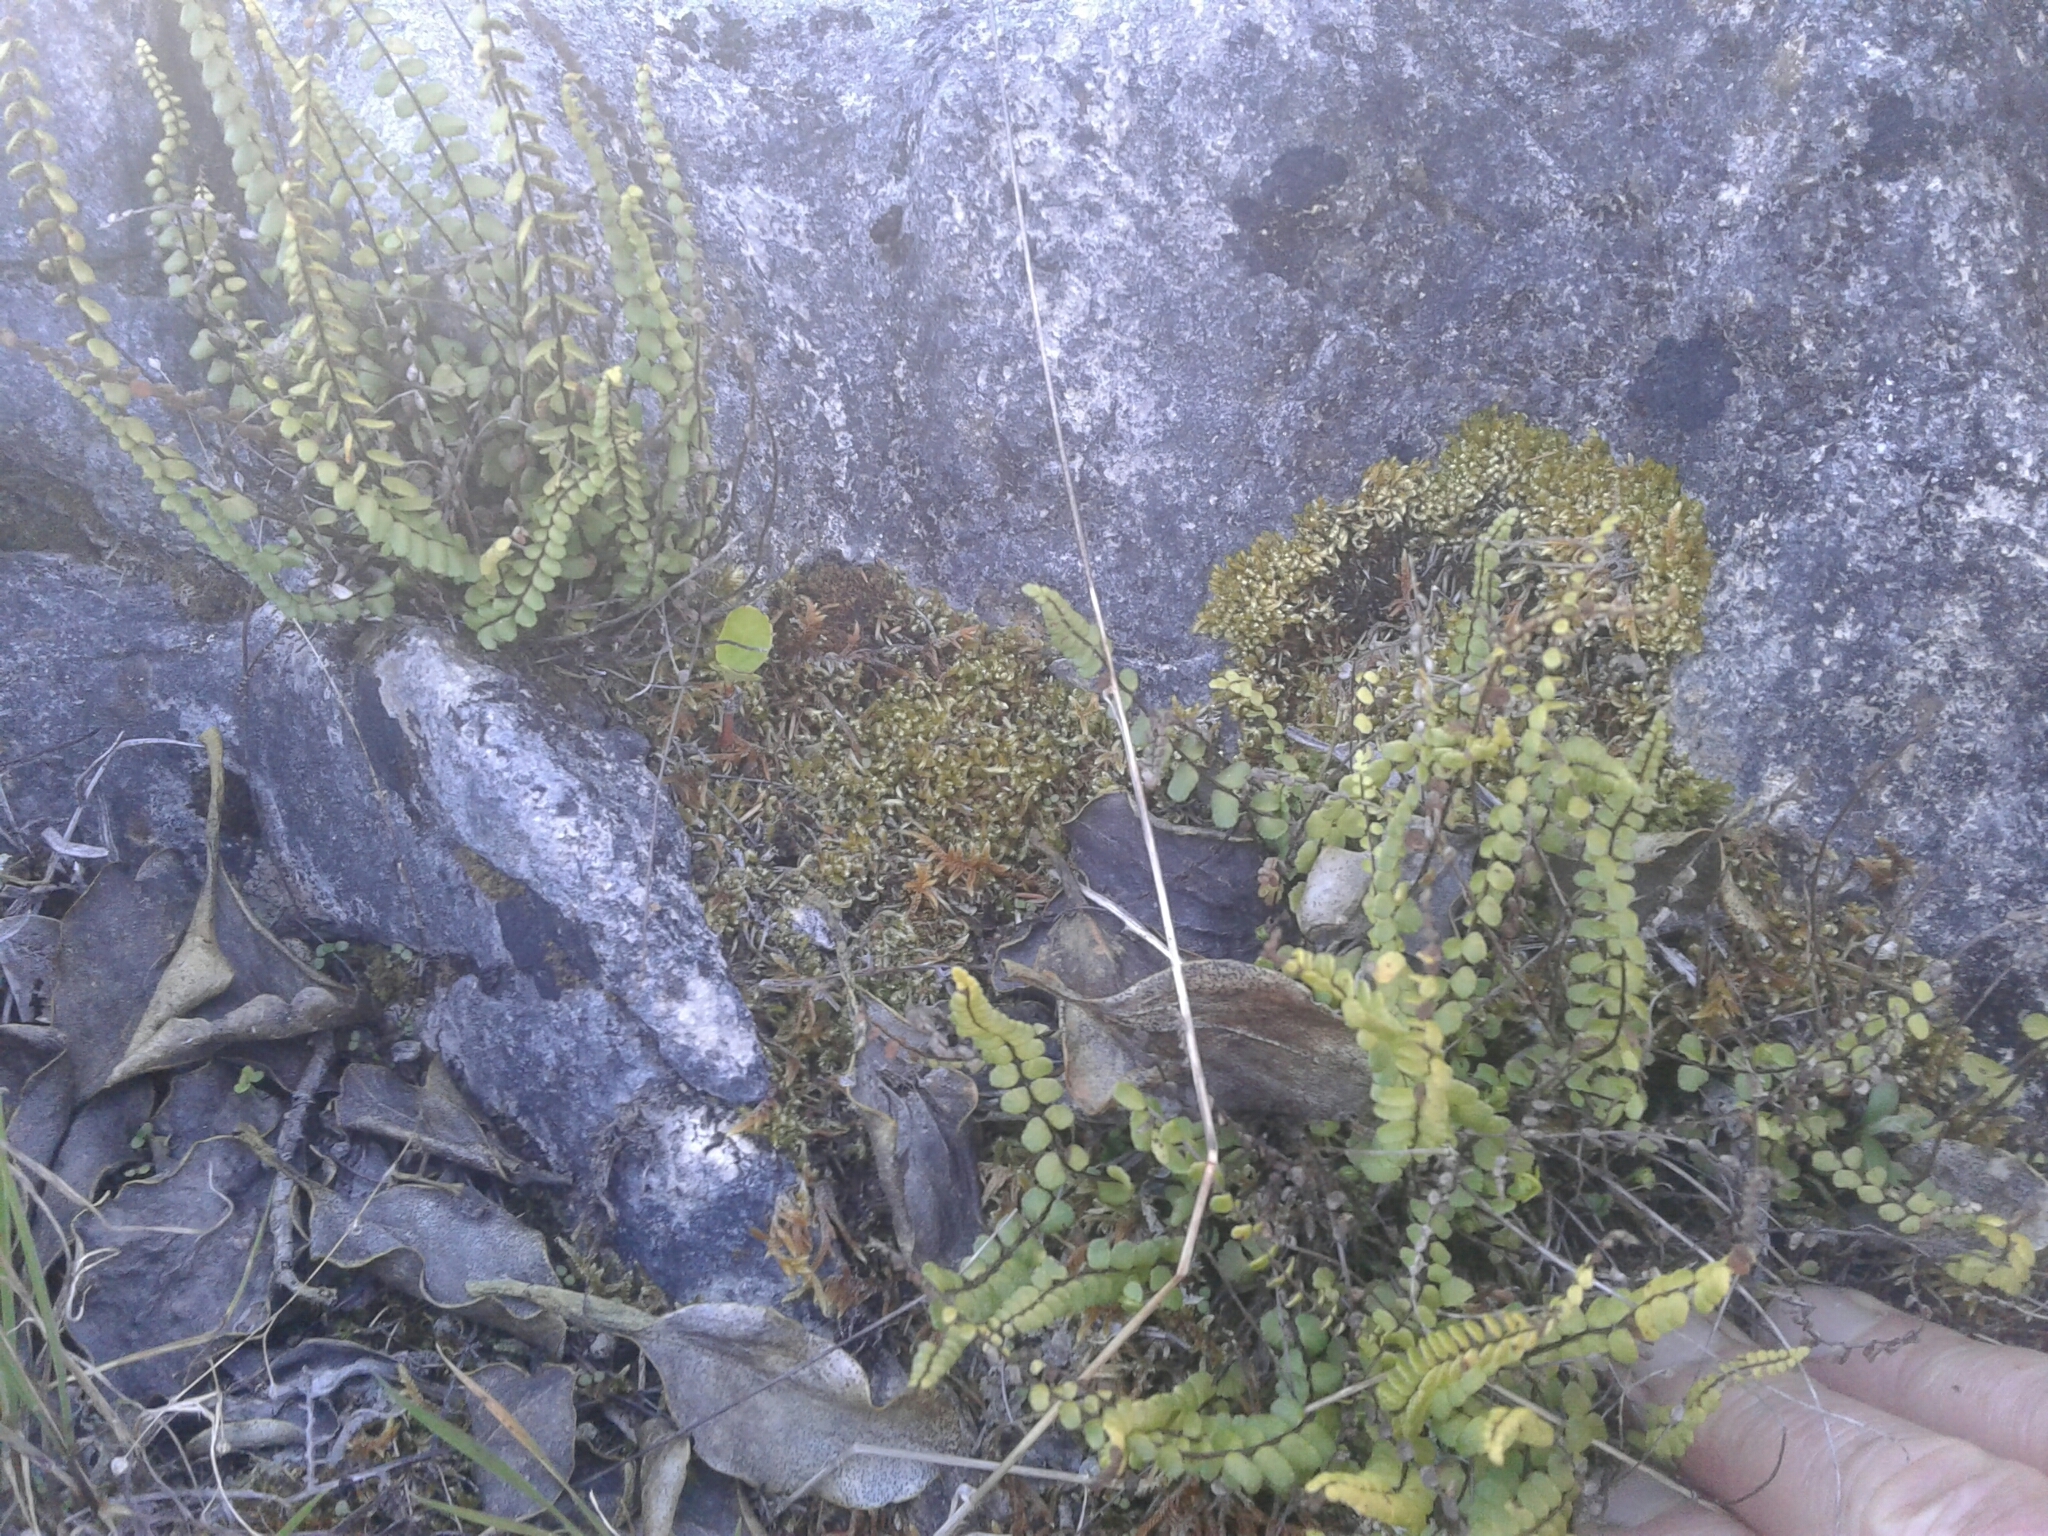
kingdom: Plantae
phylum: Tracheophyta
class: Polypodiopsida
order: Polypodiales
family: Aspleniaceae
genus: Asplenium
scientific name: Asplenium trichomanes
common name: Maidenhair spleenwort
